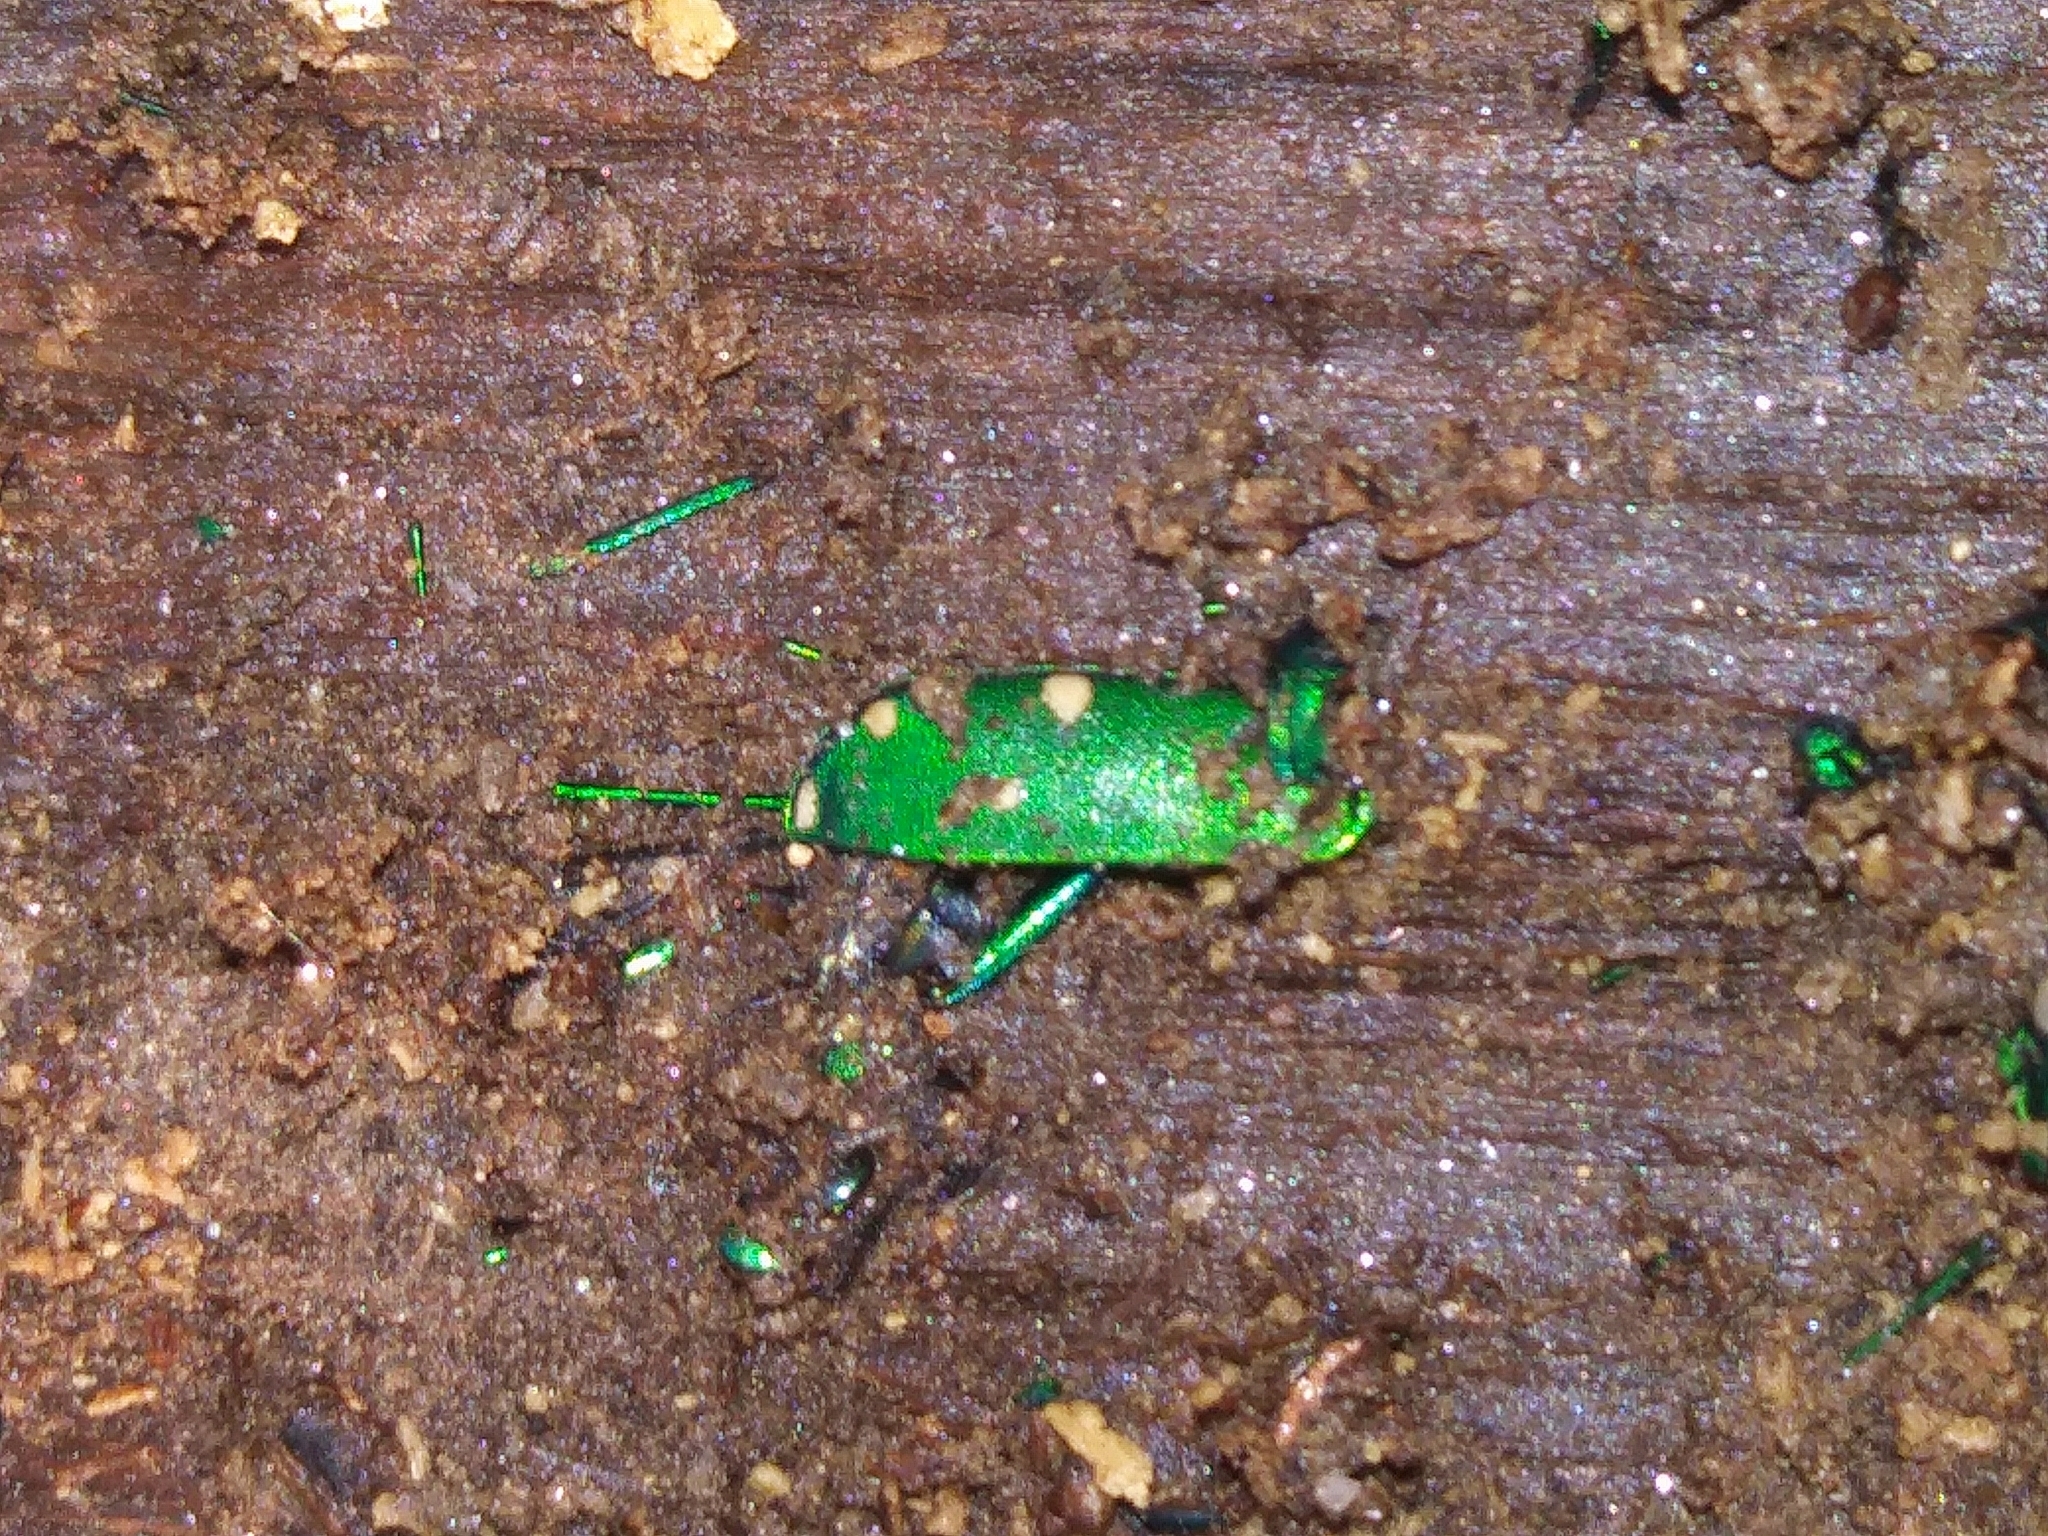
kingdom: Animalia
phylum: Arthropoda
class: Insecta
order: Coleoptera
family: Carabidae
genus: Cicindela
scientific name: Cicindela sexguttata
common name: Six-spotted tiger beetle
